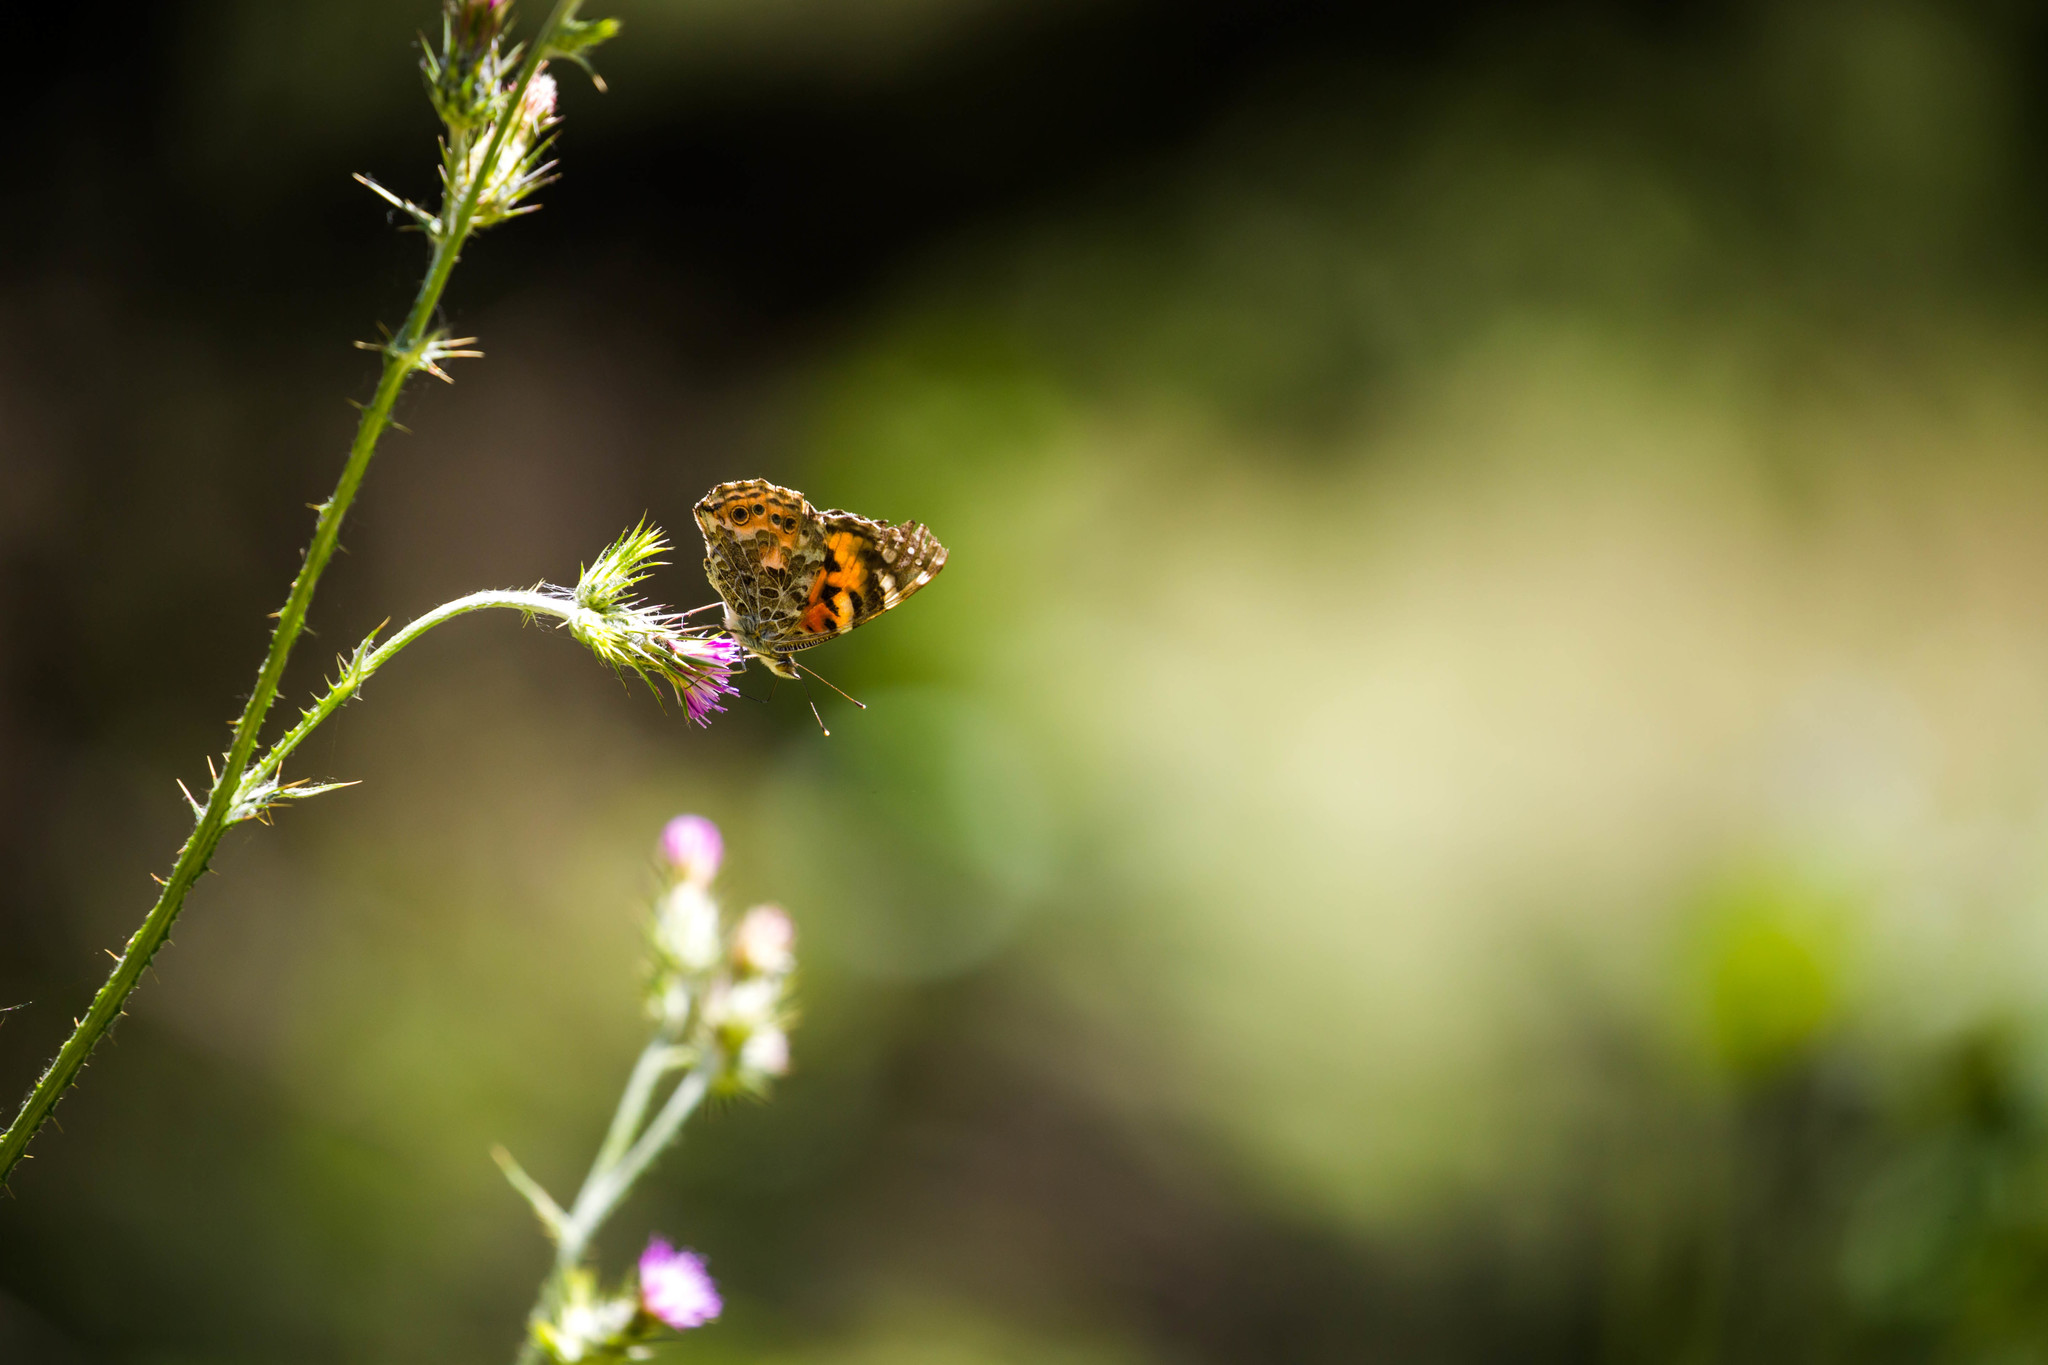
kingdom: Animalia
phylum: Arthropoda
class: Insecta
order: Lepidoptera
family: Nymphalidae
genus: Vanessa
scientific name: Vanessa cardui
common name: Painted lady
